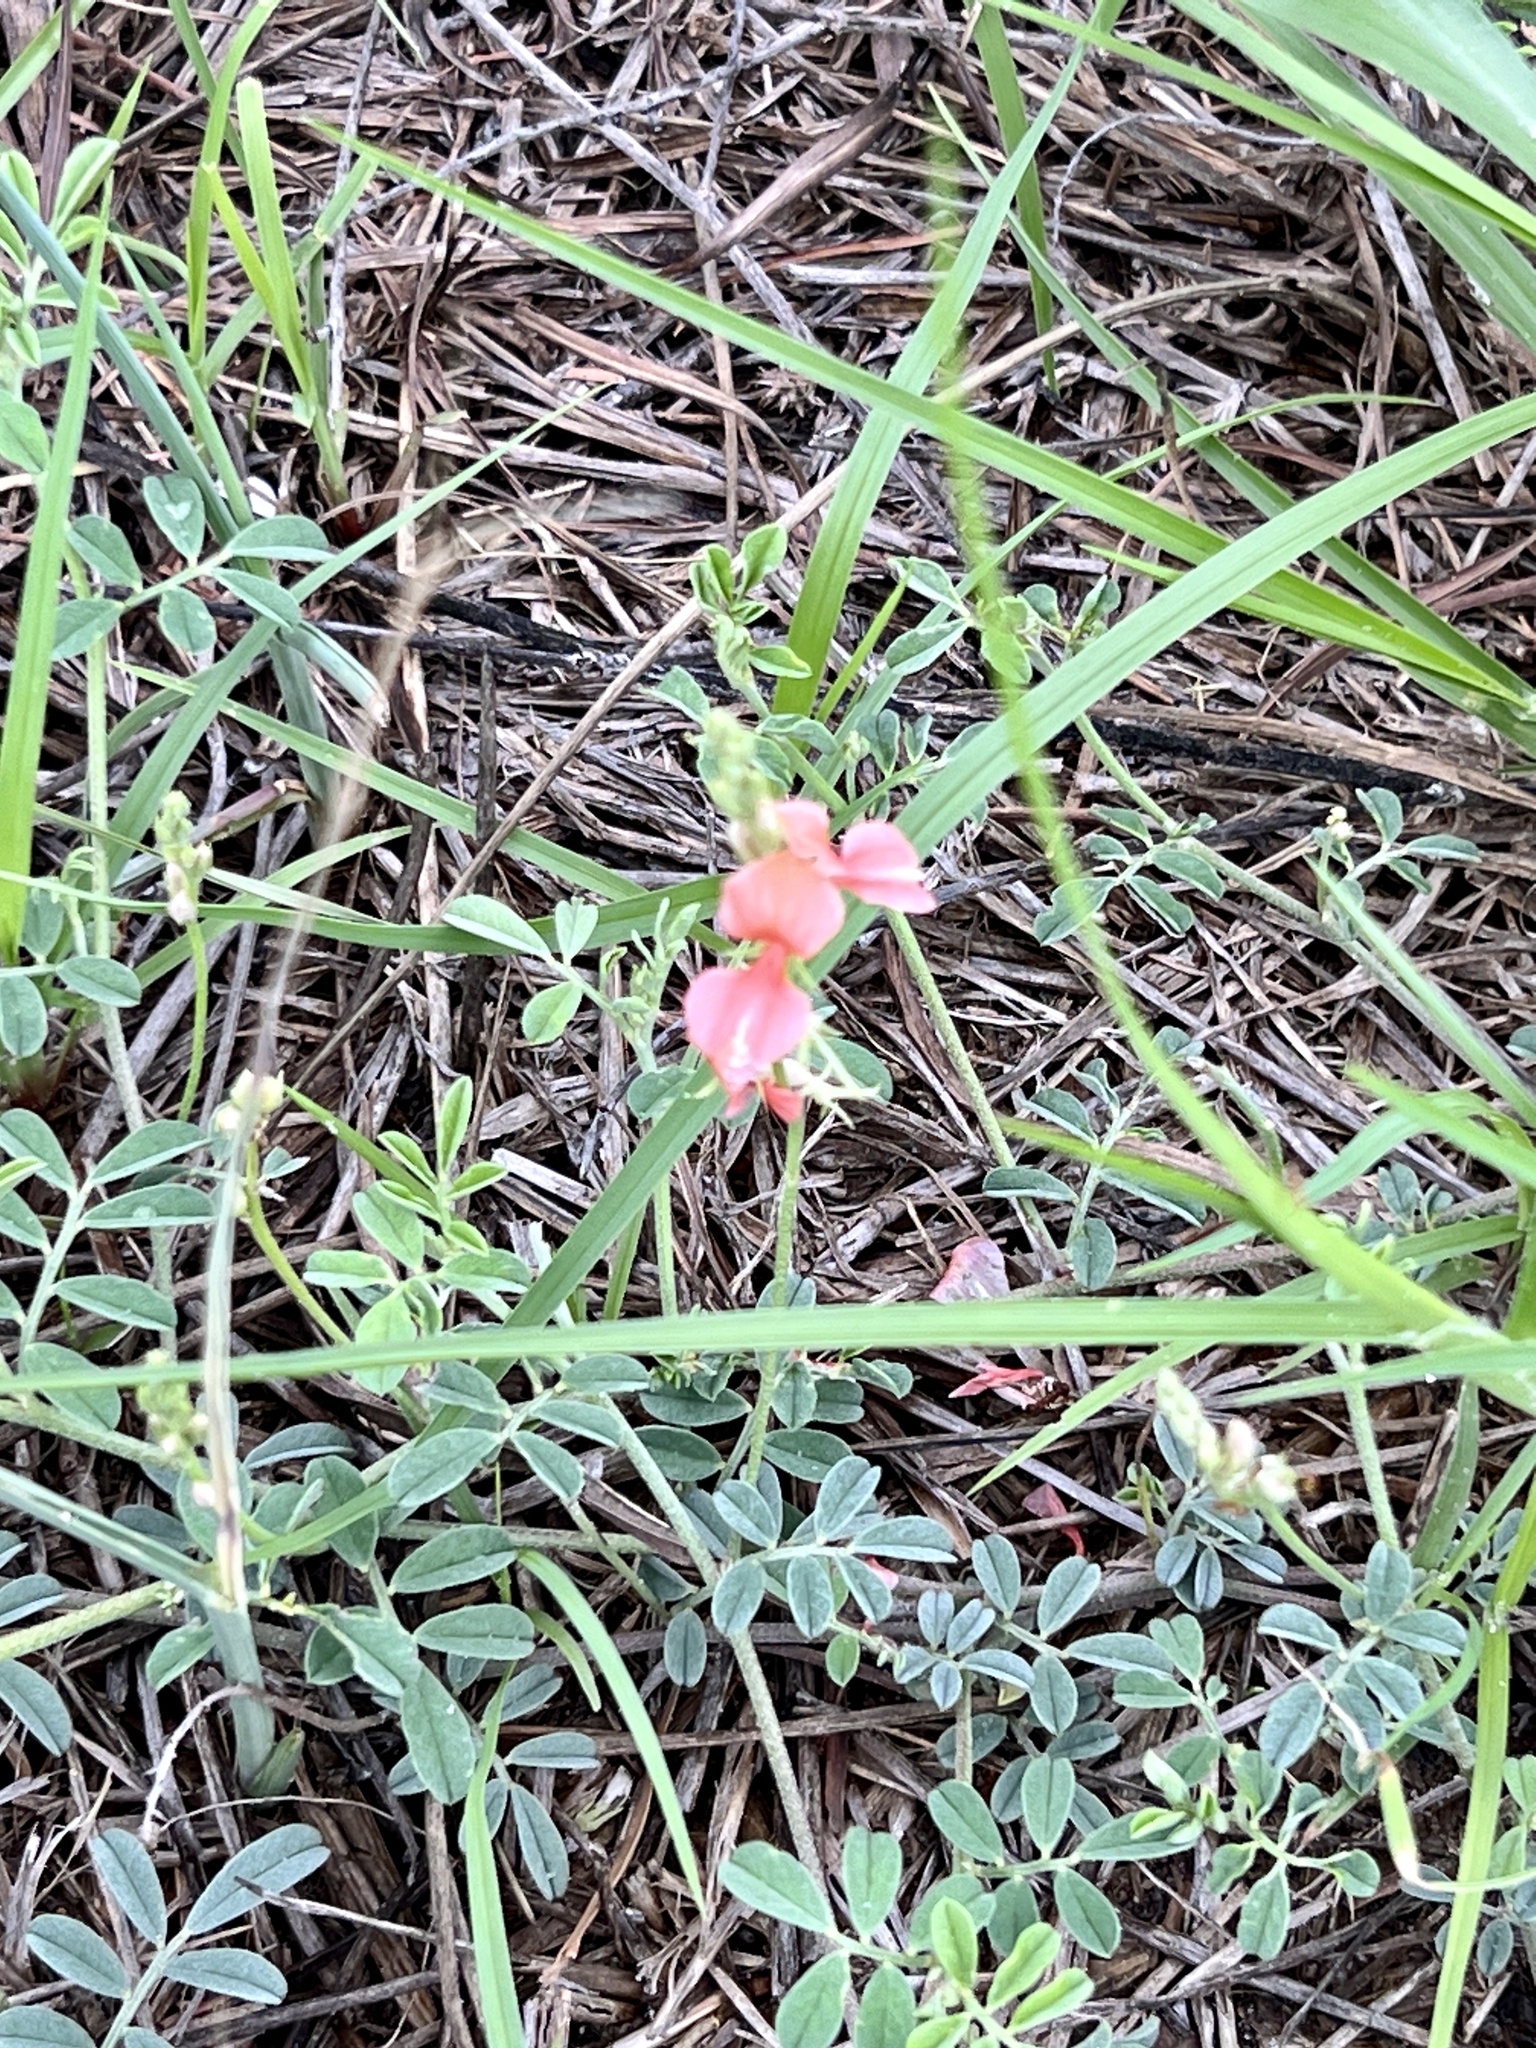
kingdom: Plantae
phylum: Tracheophyta
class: Magnoliopsida
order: Fabales
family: Fabaceae
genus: Indigofera
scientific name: Indigofera miniata
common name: Coast indigo
